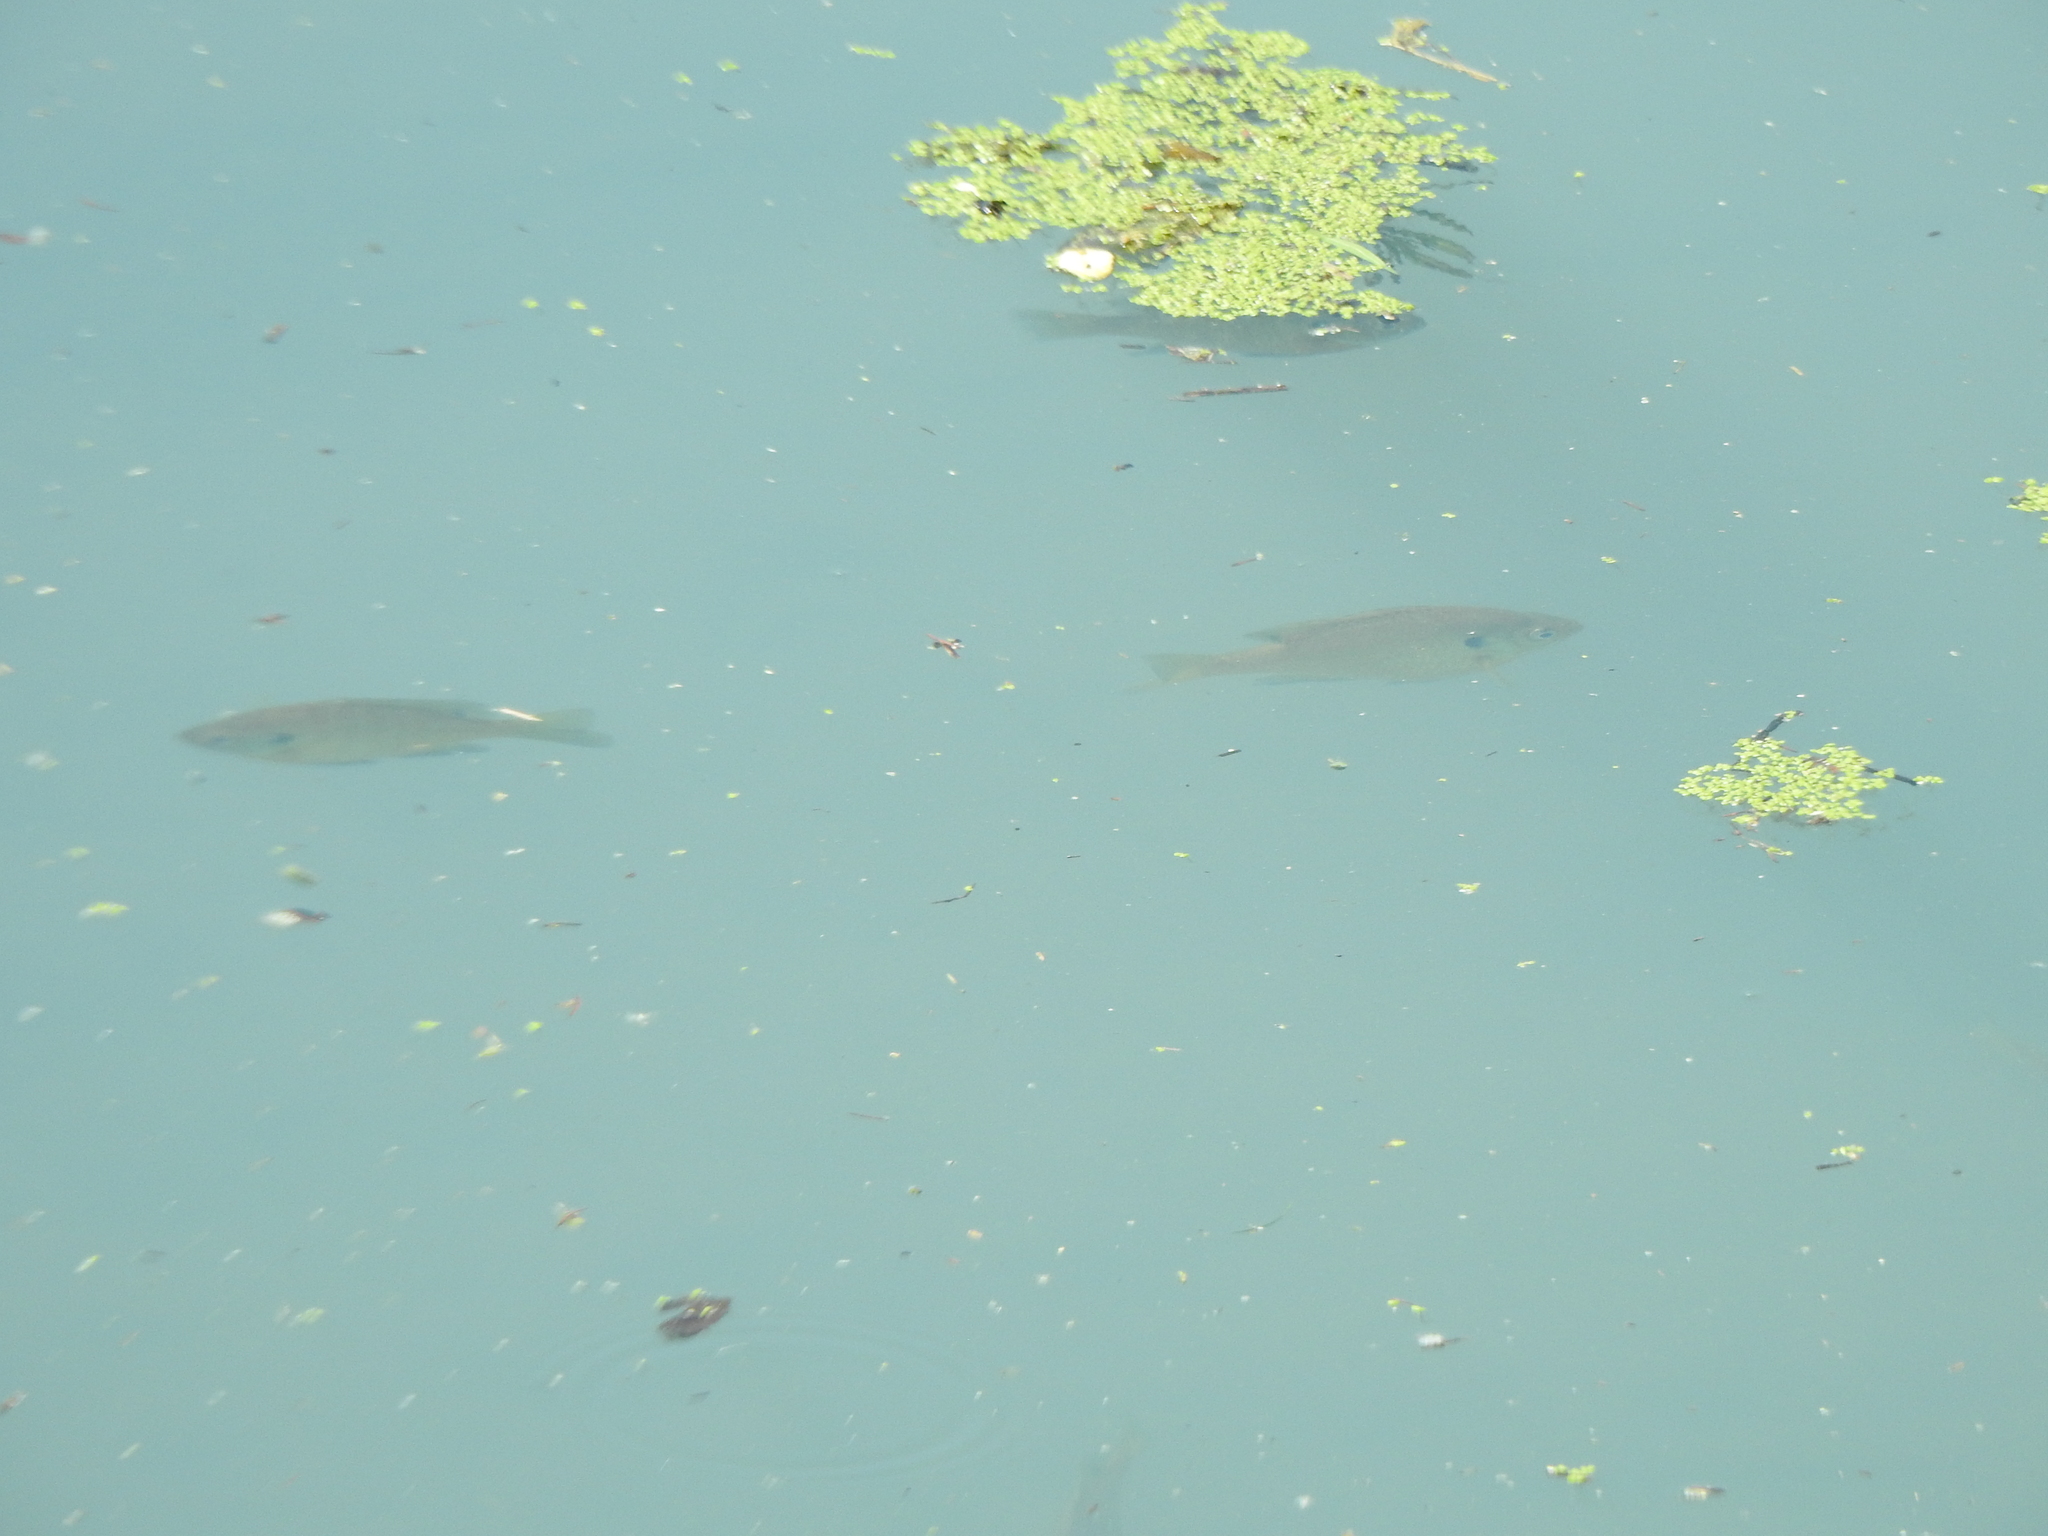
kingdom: Animalia
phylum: Chordata
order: Perciformes
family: Centrarchidae
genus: Lepomis
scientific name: Lepomis macrochirus
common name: Bluegill
